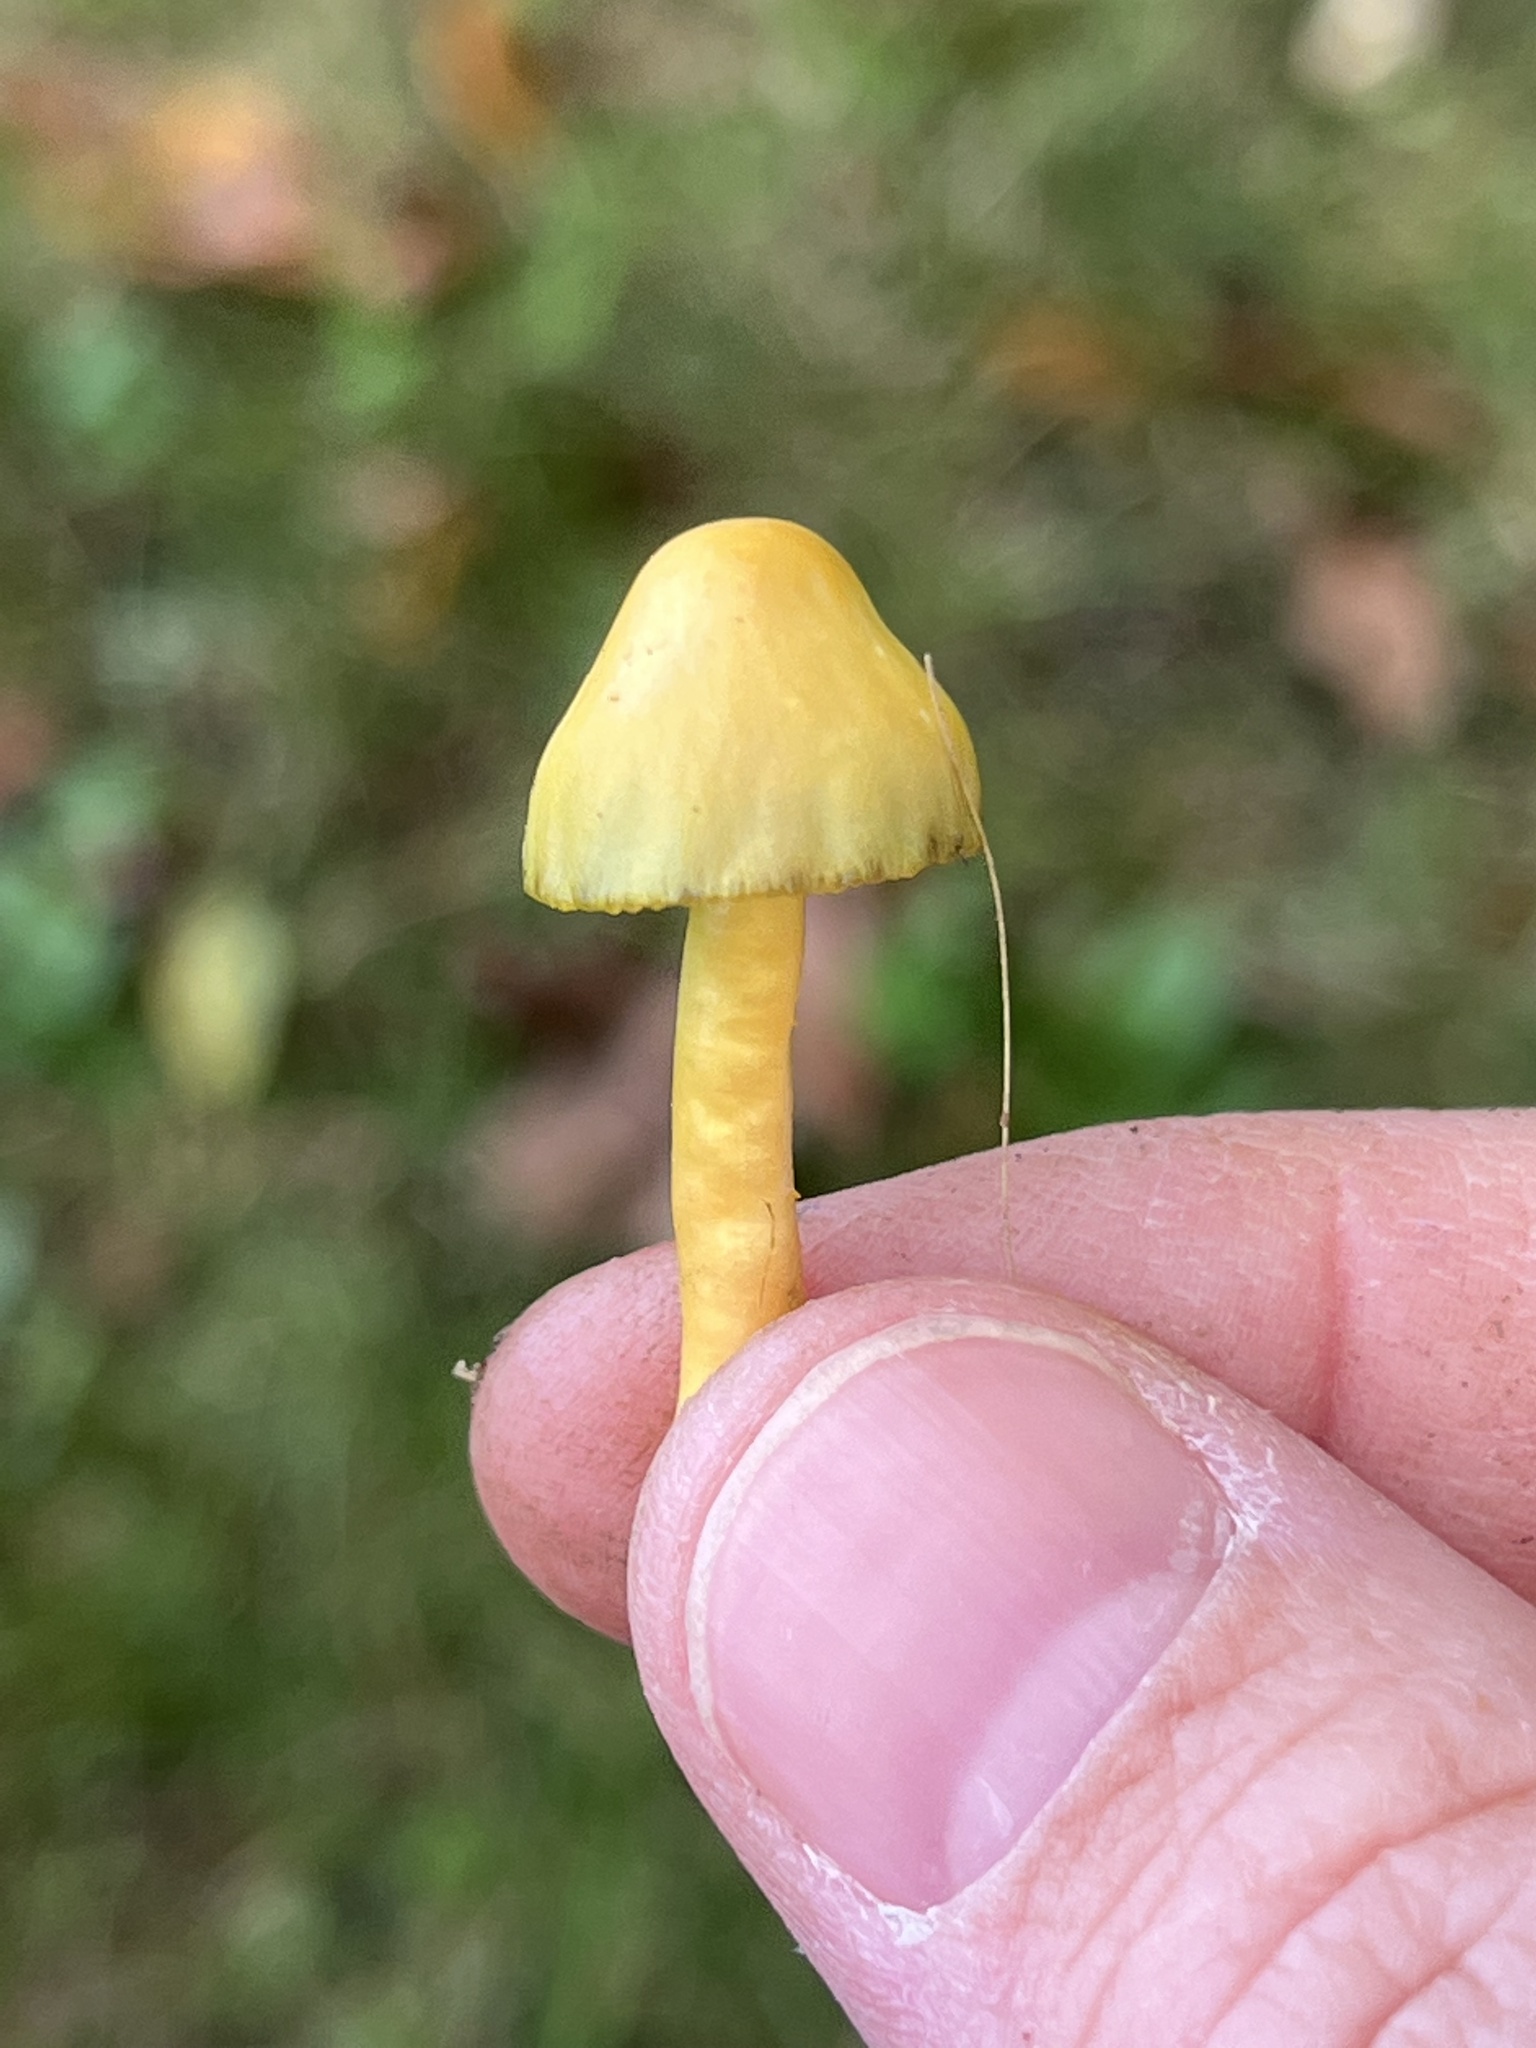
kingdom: Fungi
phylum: Basidiomycota
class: Agaricomycetes
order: Agaricales
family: Hygrophoraceae
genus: Gliophorus
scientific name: Gliophorus psittacinus
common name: Parrot wax-cap
